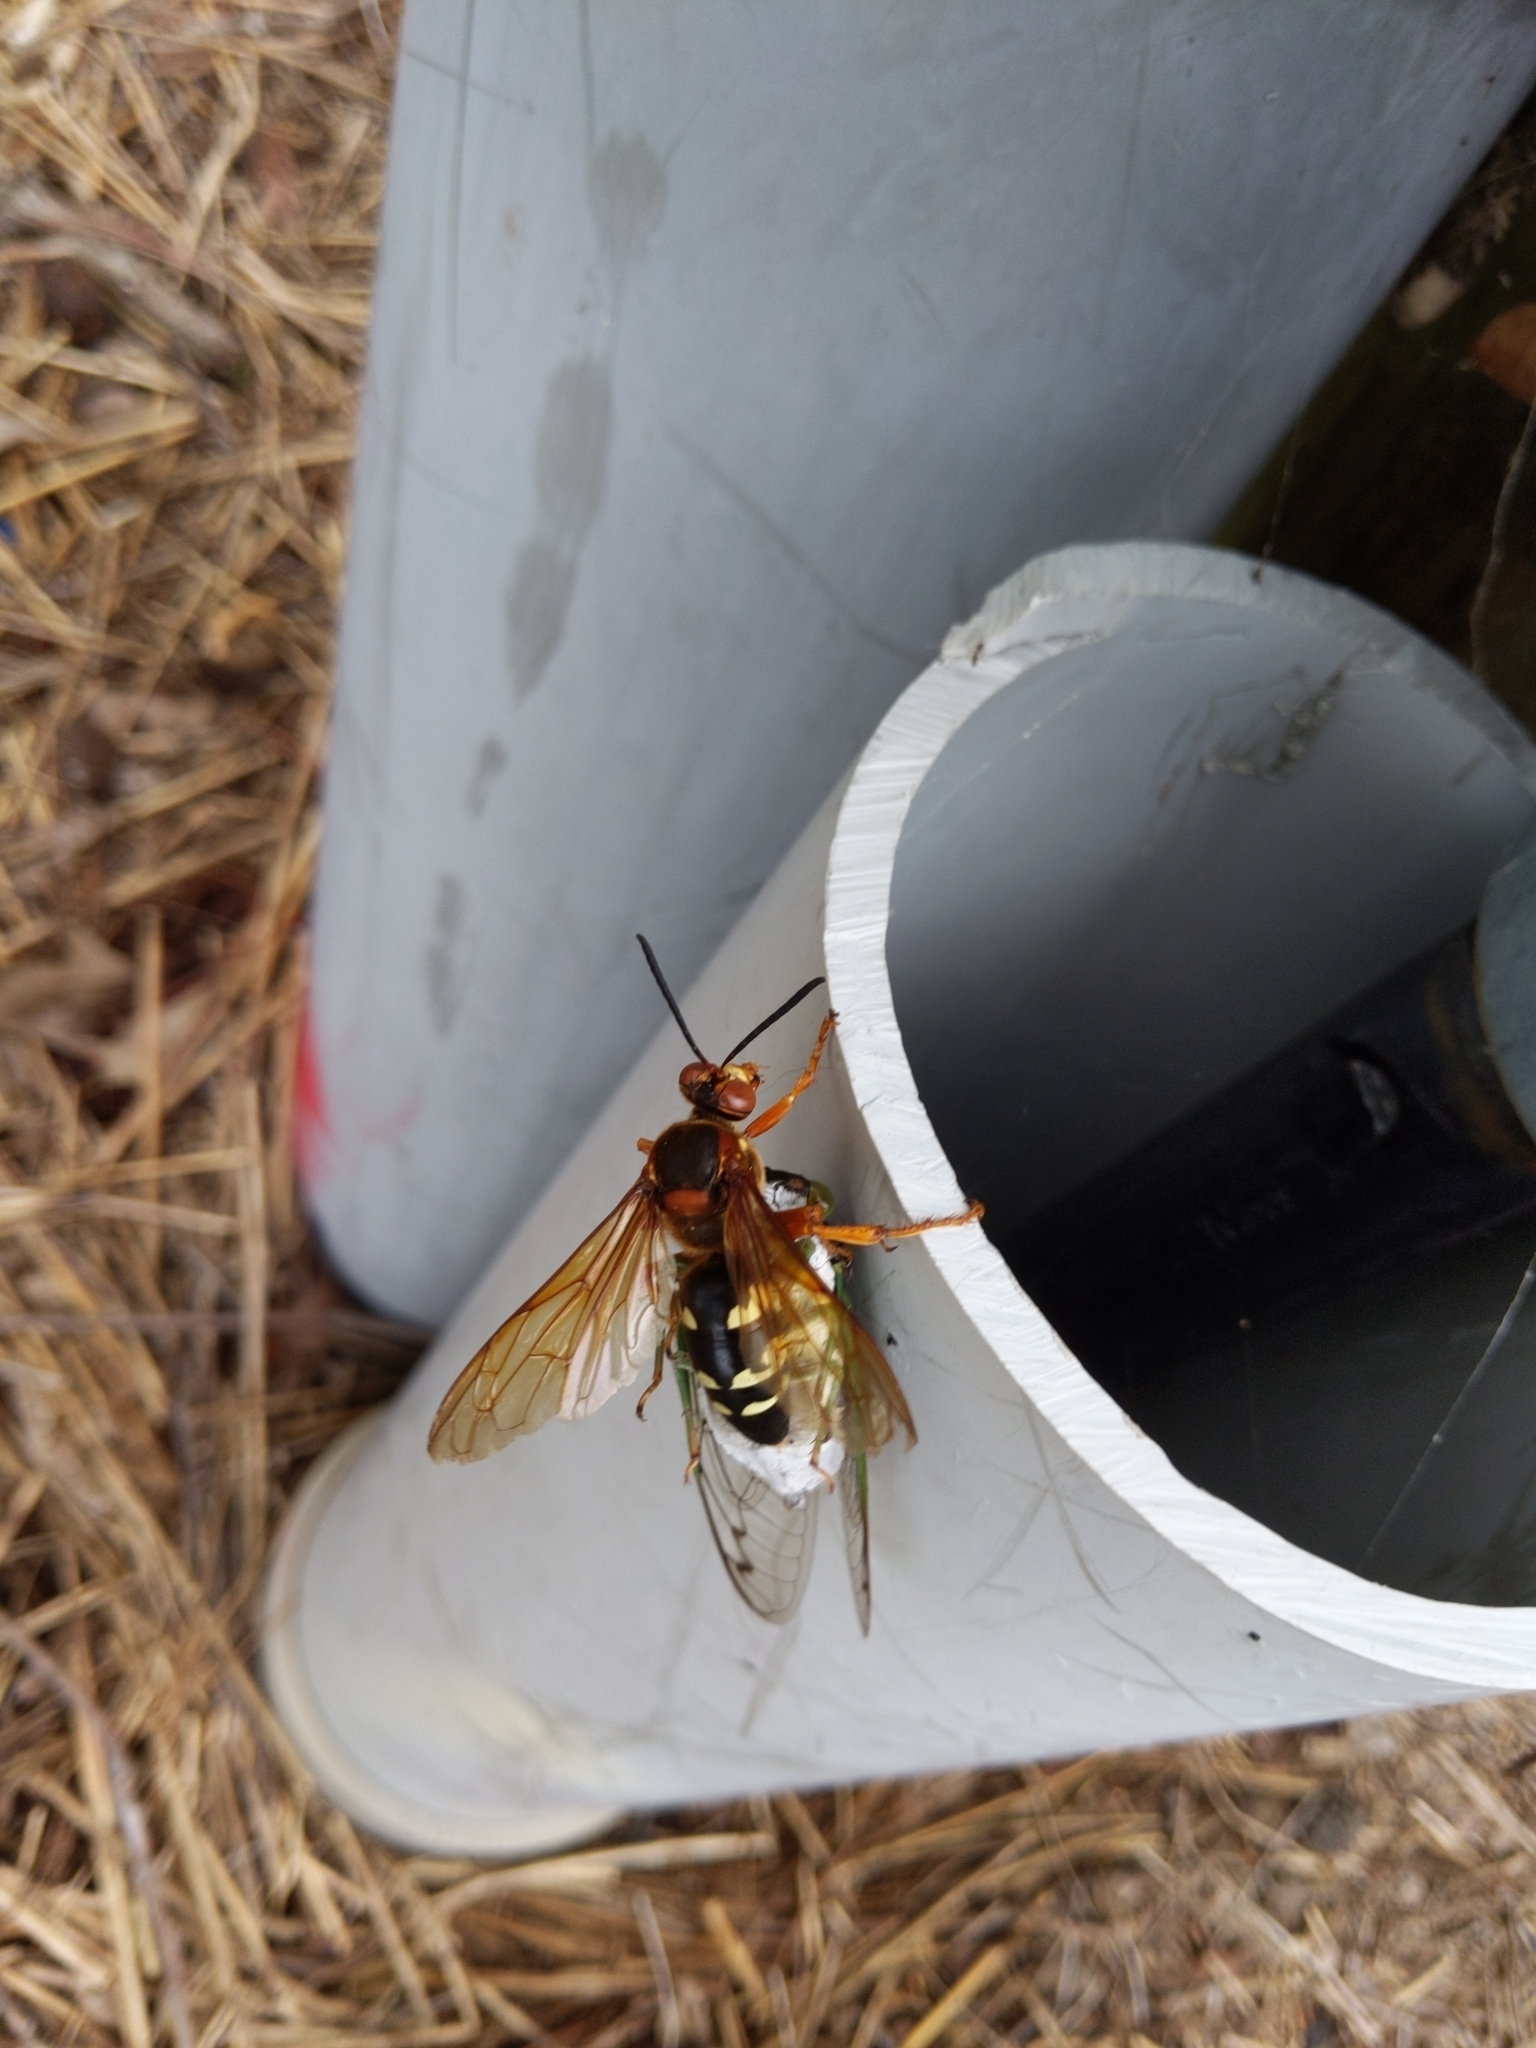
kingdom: Animalia
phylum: Arthropoda
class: Insecta
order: Hymenoptera
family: Crabronidae
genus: Sphecius
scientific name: Sphecius speciosus
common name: Cicada killer
